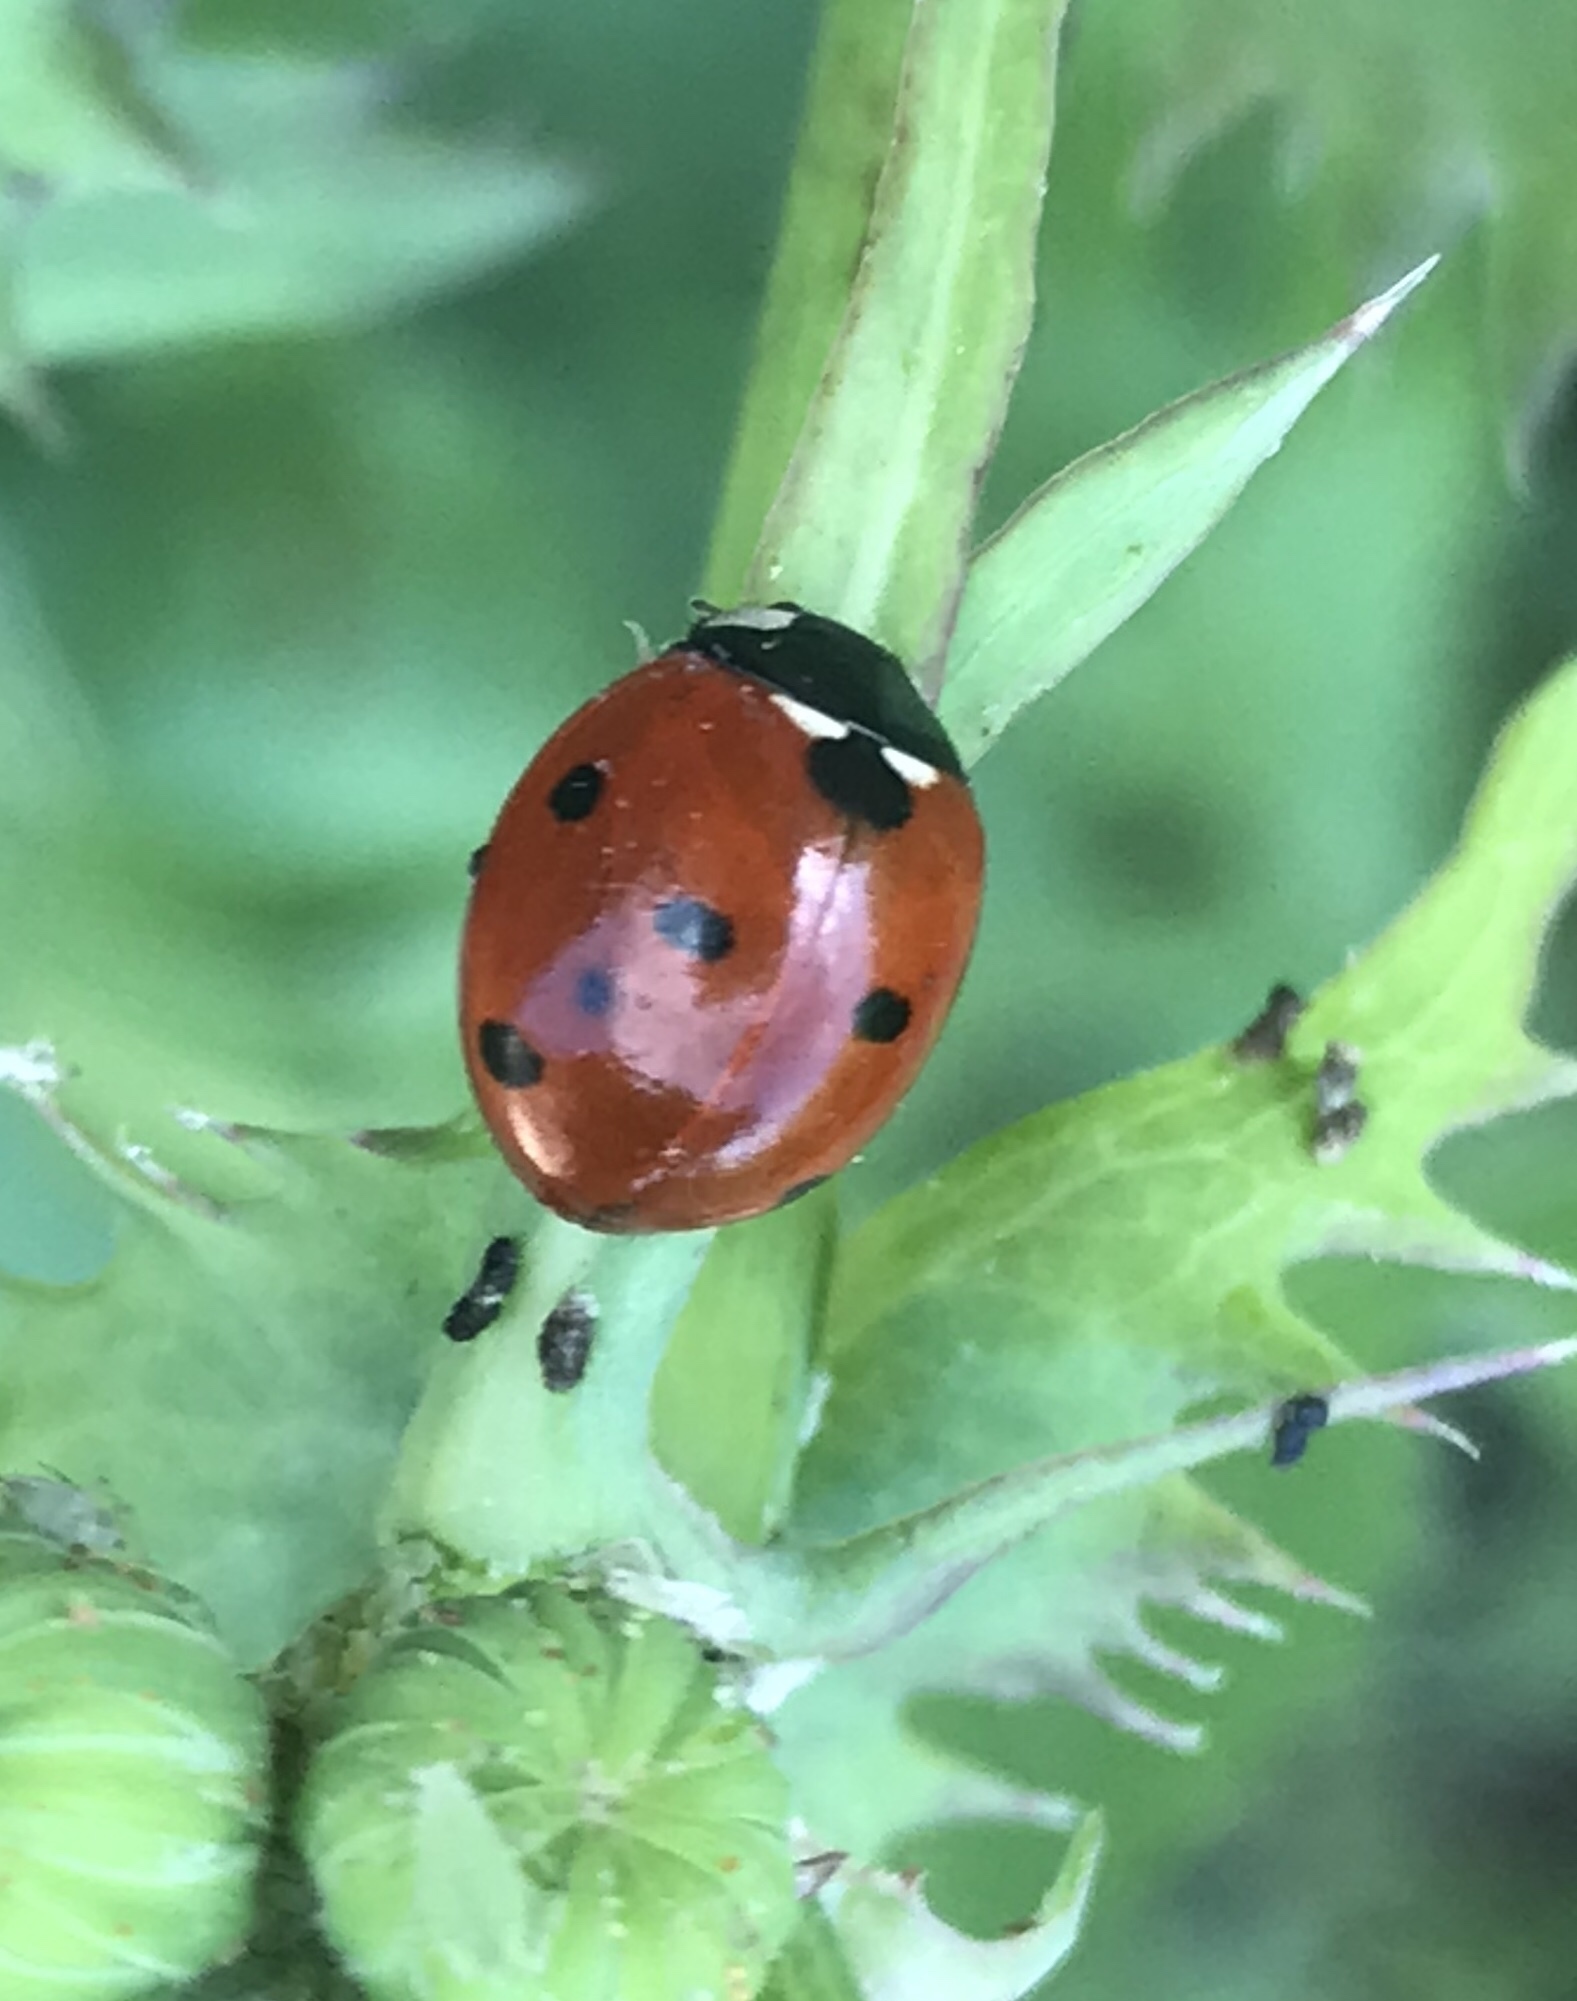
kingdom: Animalia
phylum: Arthropoda
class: Insecta
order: Coleoptera
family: Coccinellidae
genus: Coccinella
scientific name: Coccinella septempunctata
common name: Sevenspotted lady beetle
